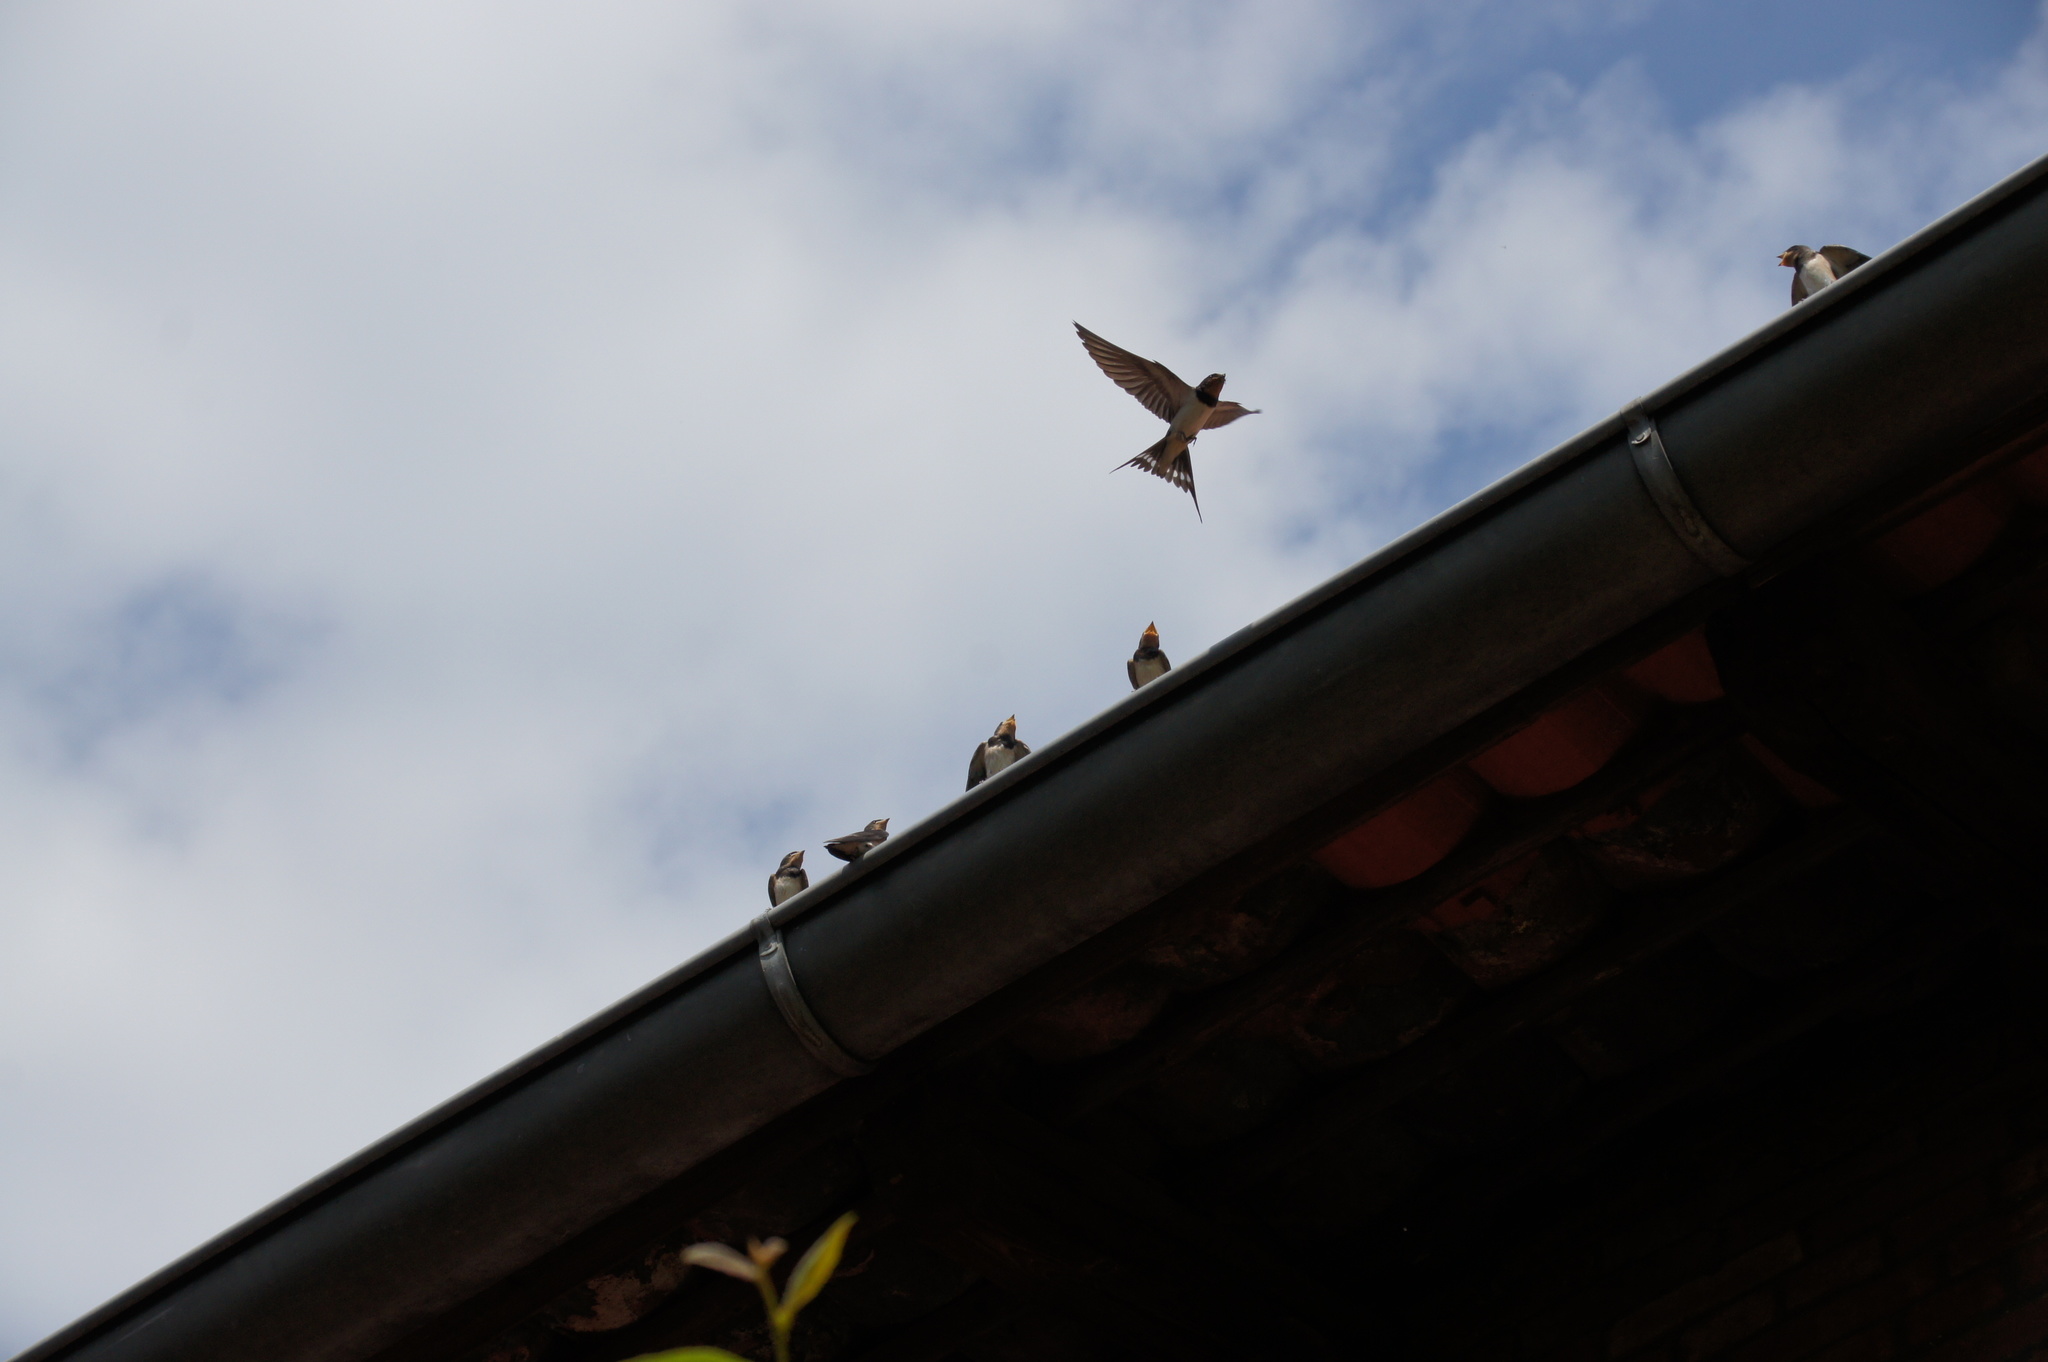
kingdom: Animalia
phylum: Chordata
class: Aves
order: Passeriformes
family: Hirundinidae
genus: Hirundo
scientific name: Hirundo rustica
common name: Barn swallow
